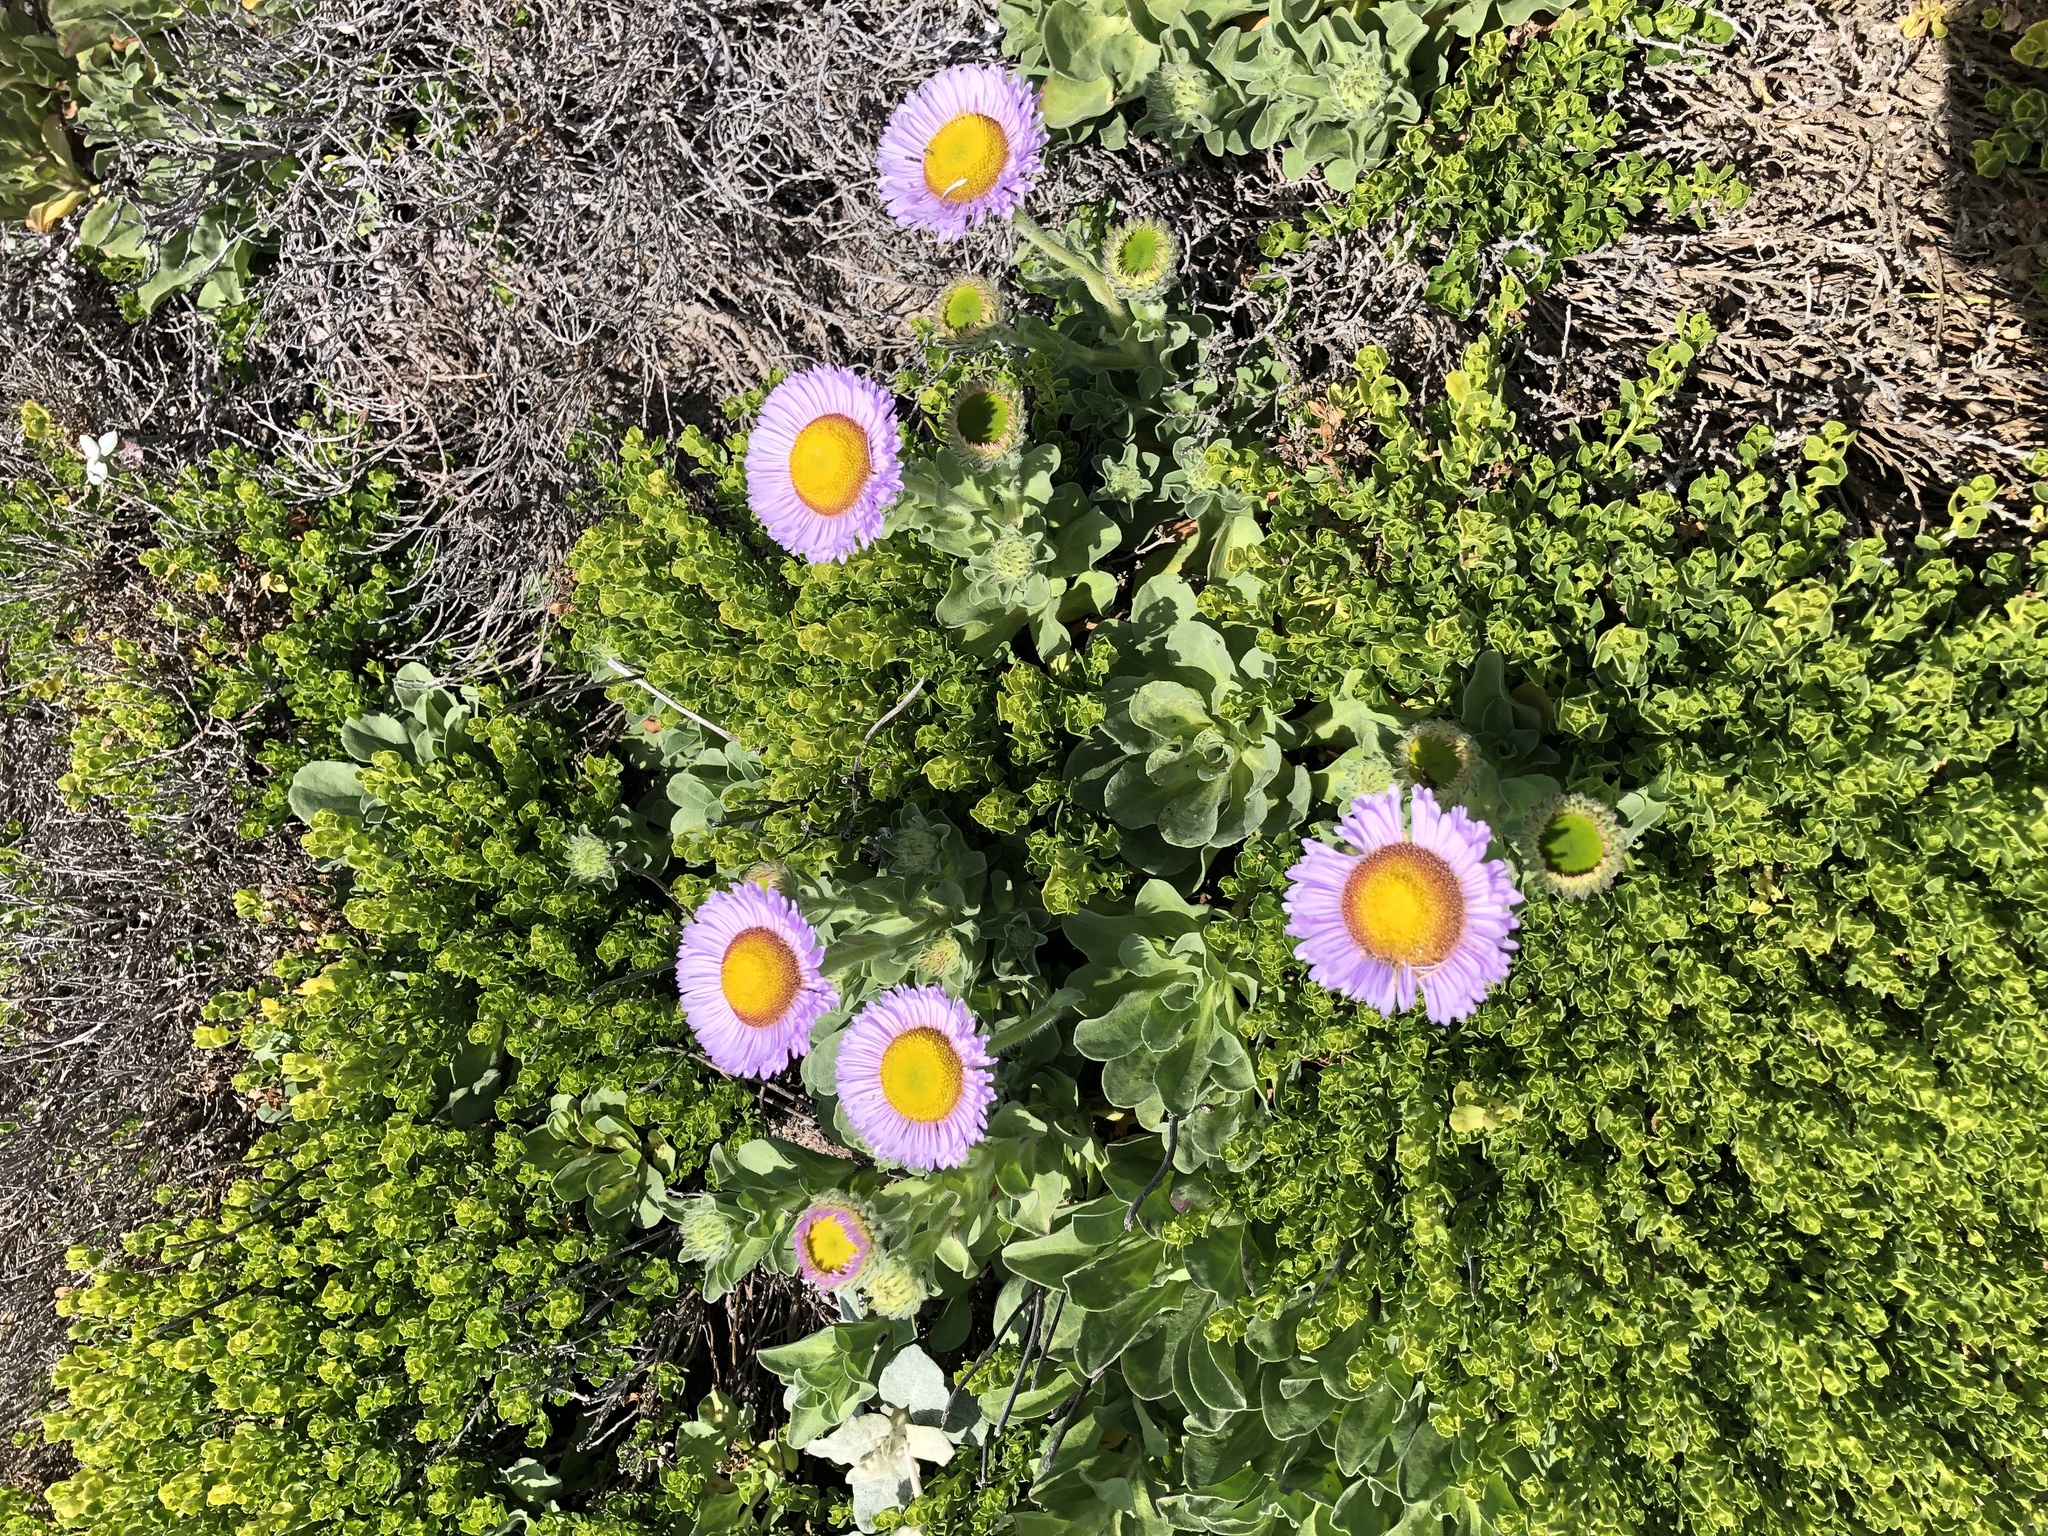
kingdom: Plantae
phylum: Tracheophyta
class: Magnoliopsida
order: Asterales
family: Asteraceae
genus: Erigeron
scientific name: Erigeron glaucus
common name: Seaside daisy
